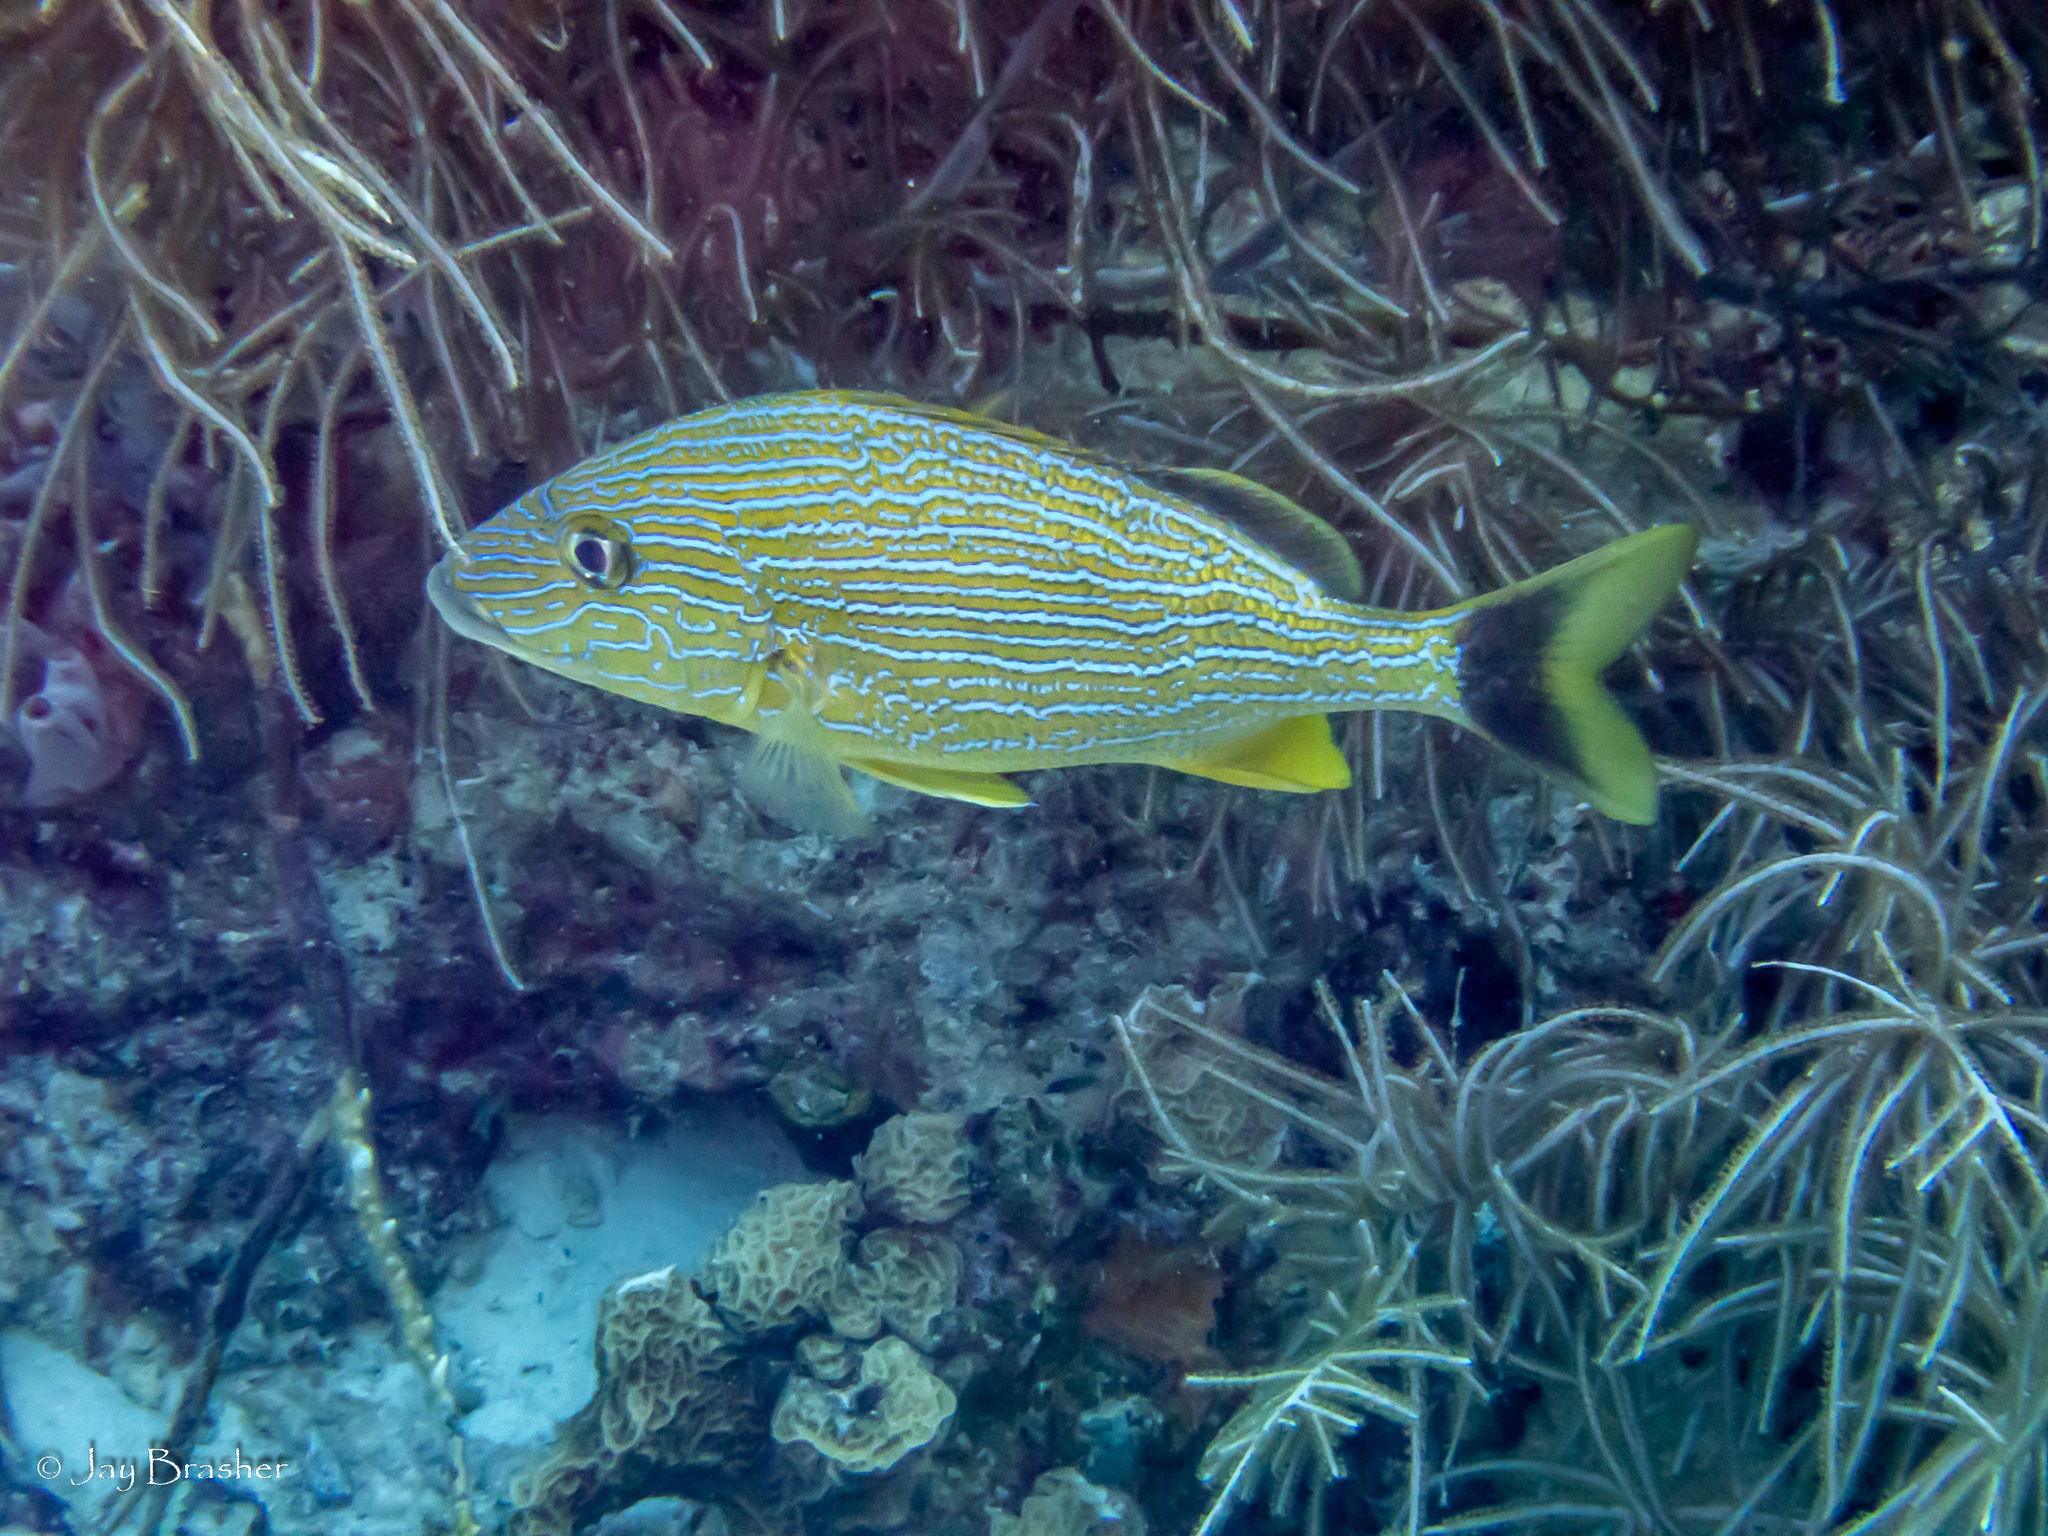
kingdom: Animalia
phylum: Chordata
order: Perciformes
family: Haemulidae
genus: Haemulon
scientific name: Haemulon sciurus
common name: Bluestriped grunt
